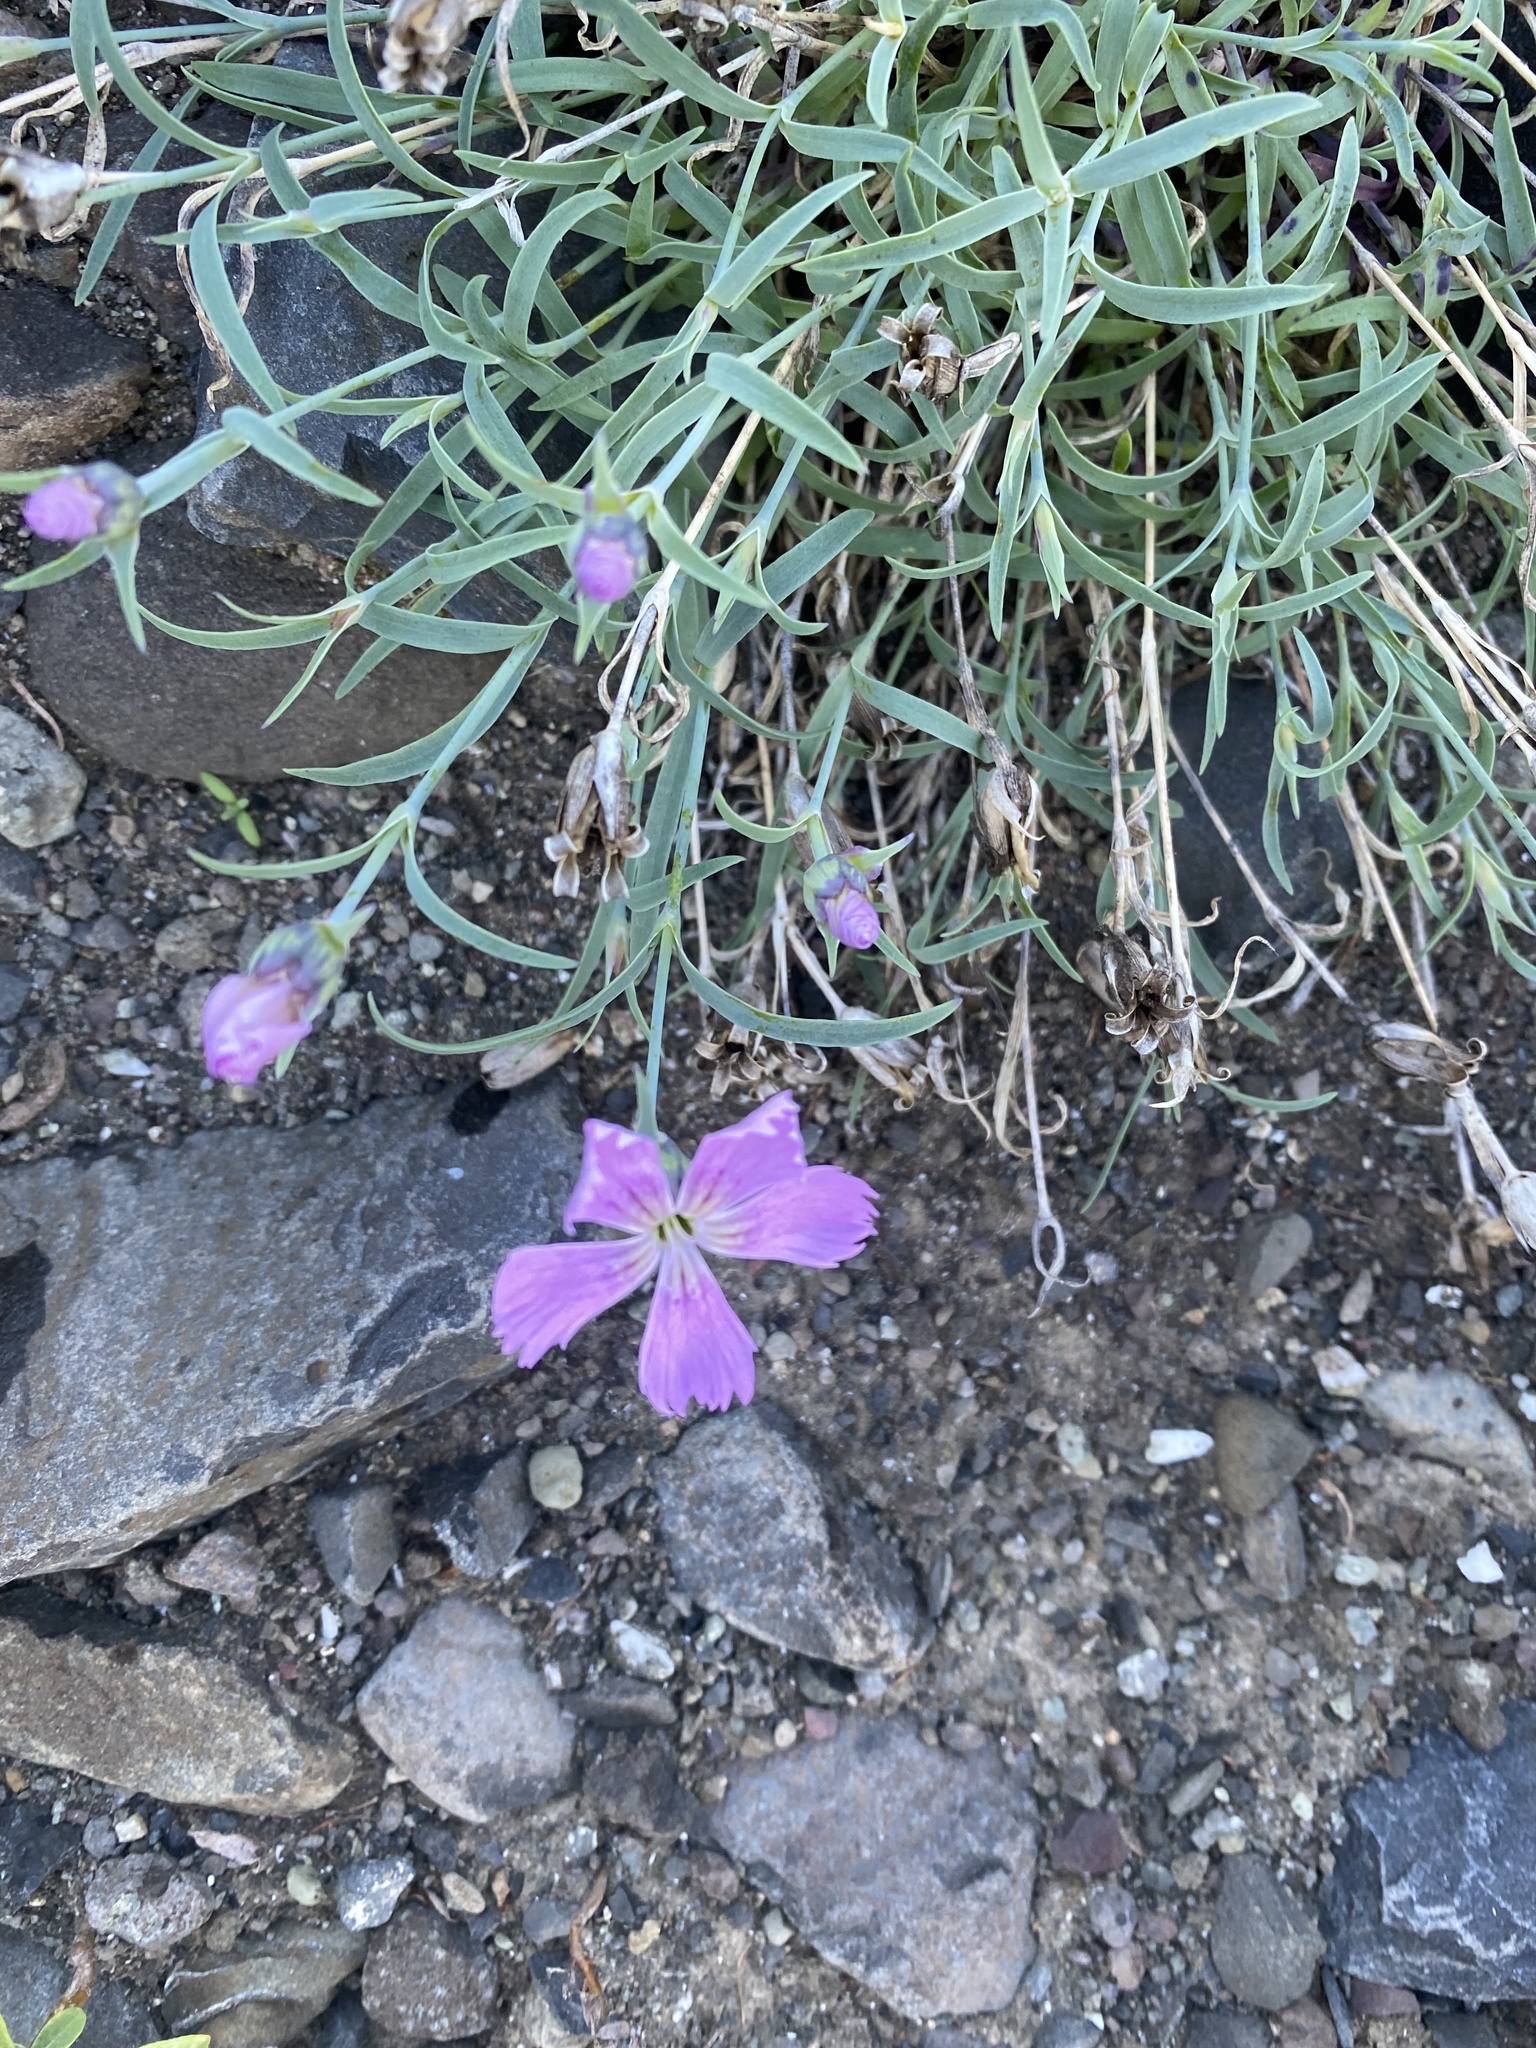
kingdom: Plantae
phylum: Tracheophyta
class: Magnoliopsida
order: Caryophyllales
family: Caryophyllaceae
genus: Dianthus
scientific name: Dianthus repens
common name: Northern pink
